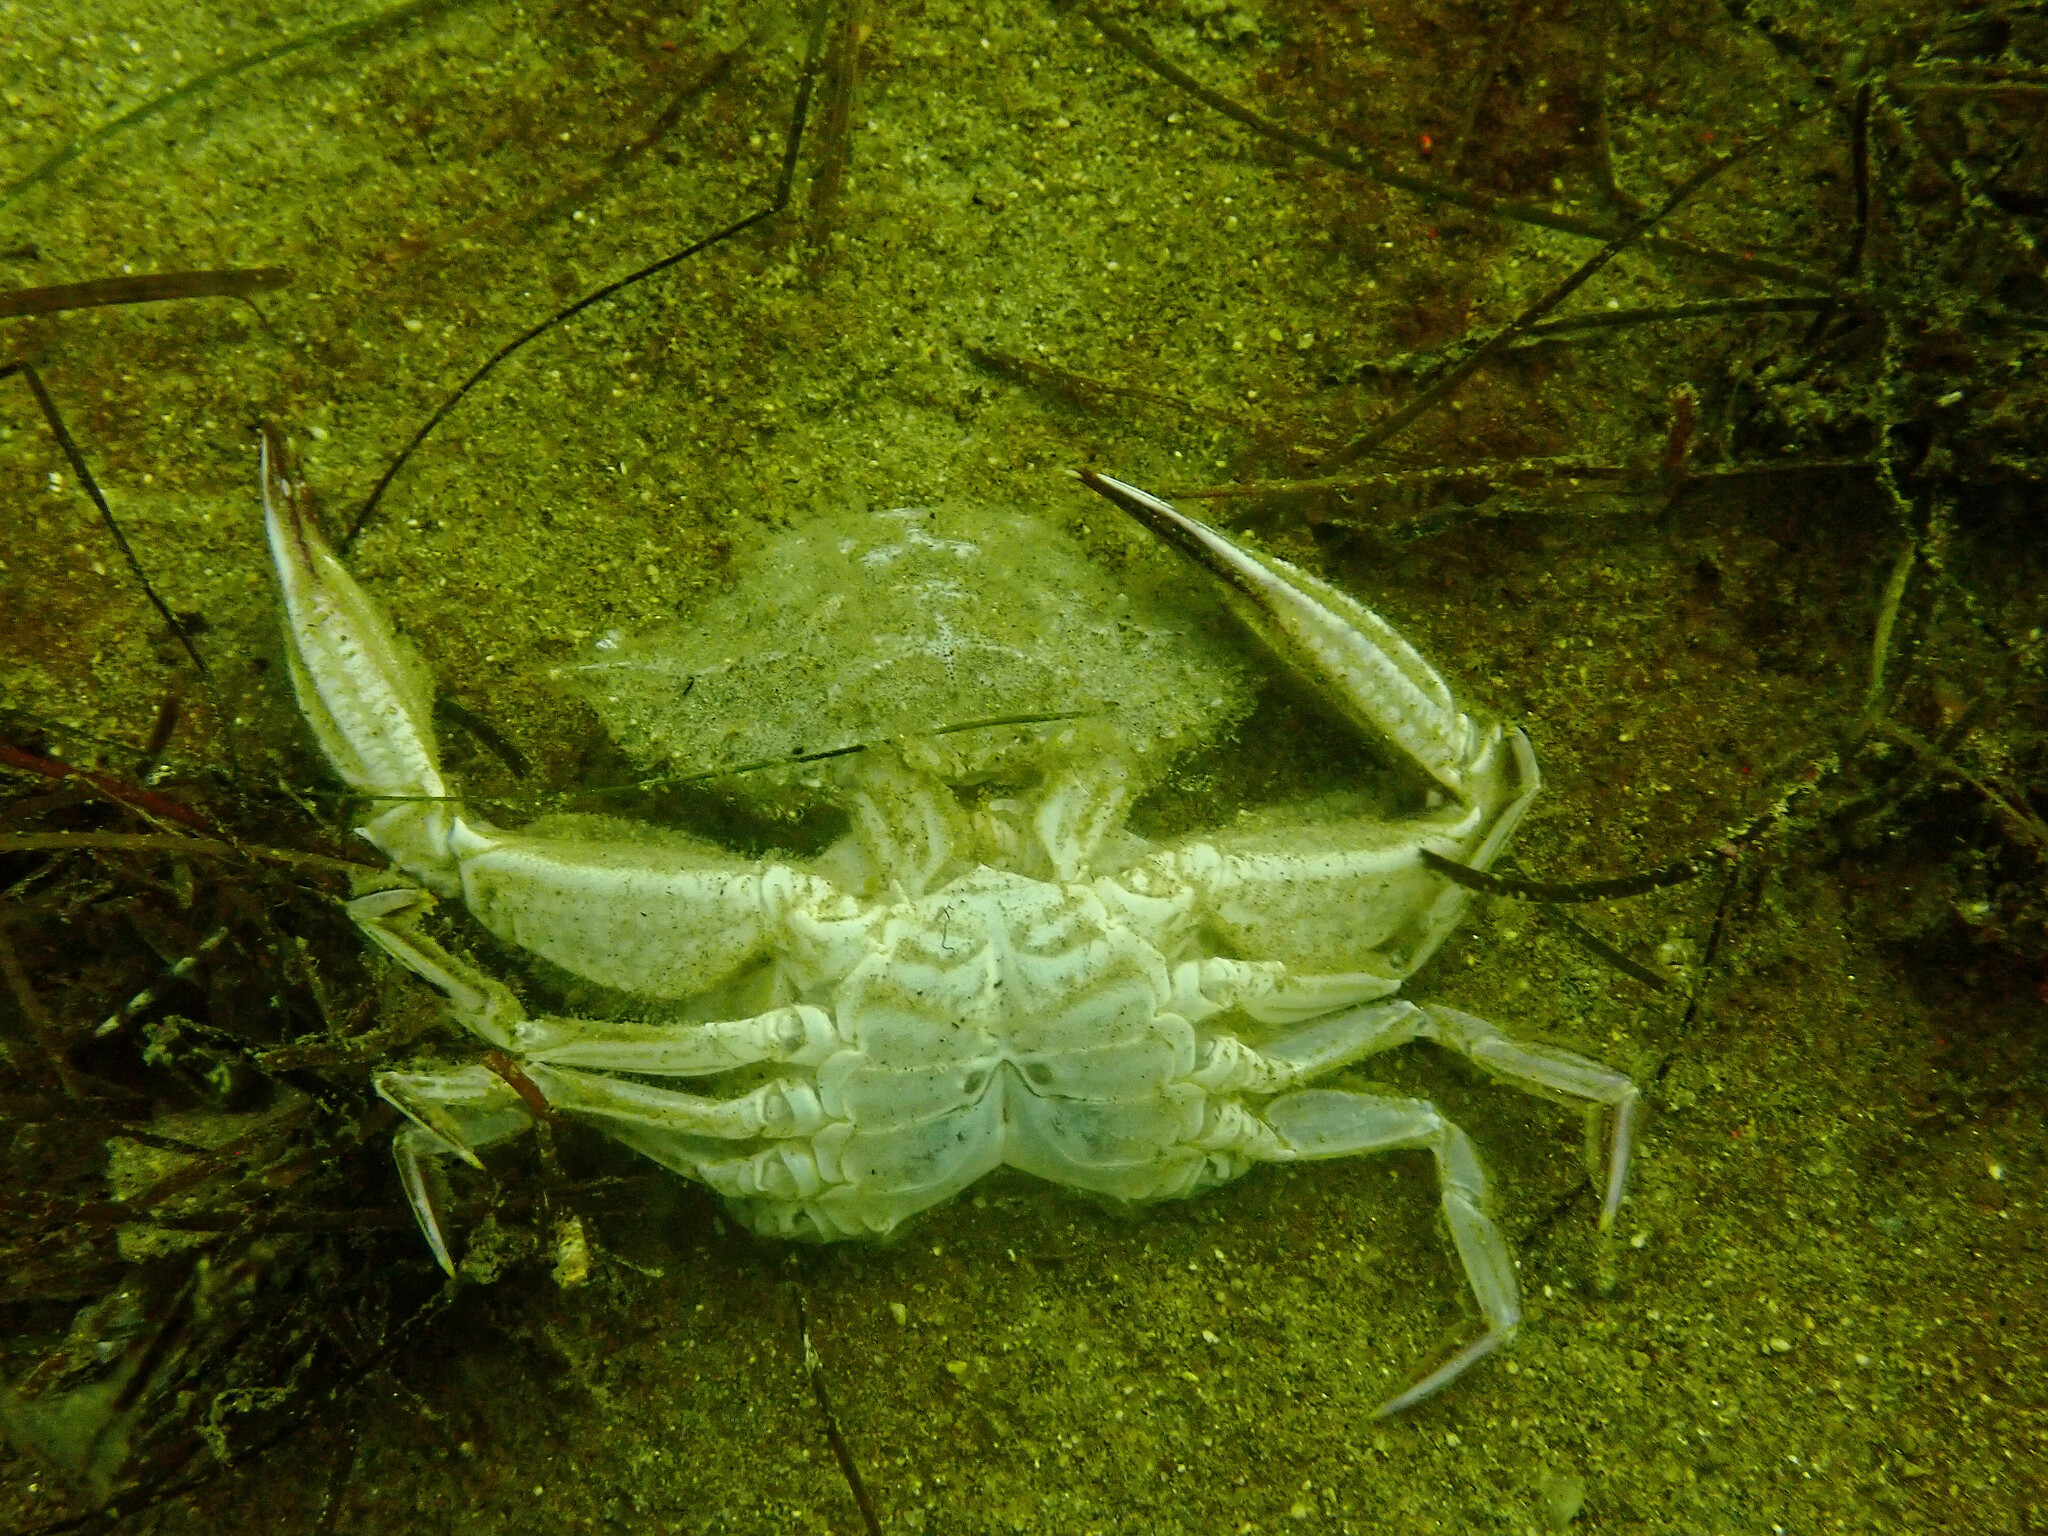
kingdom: Animalia
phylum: Arthropoda
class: Malacostraca
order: Decapoda
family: Portunidae
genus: Achelous
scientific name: Achelous xantusii
